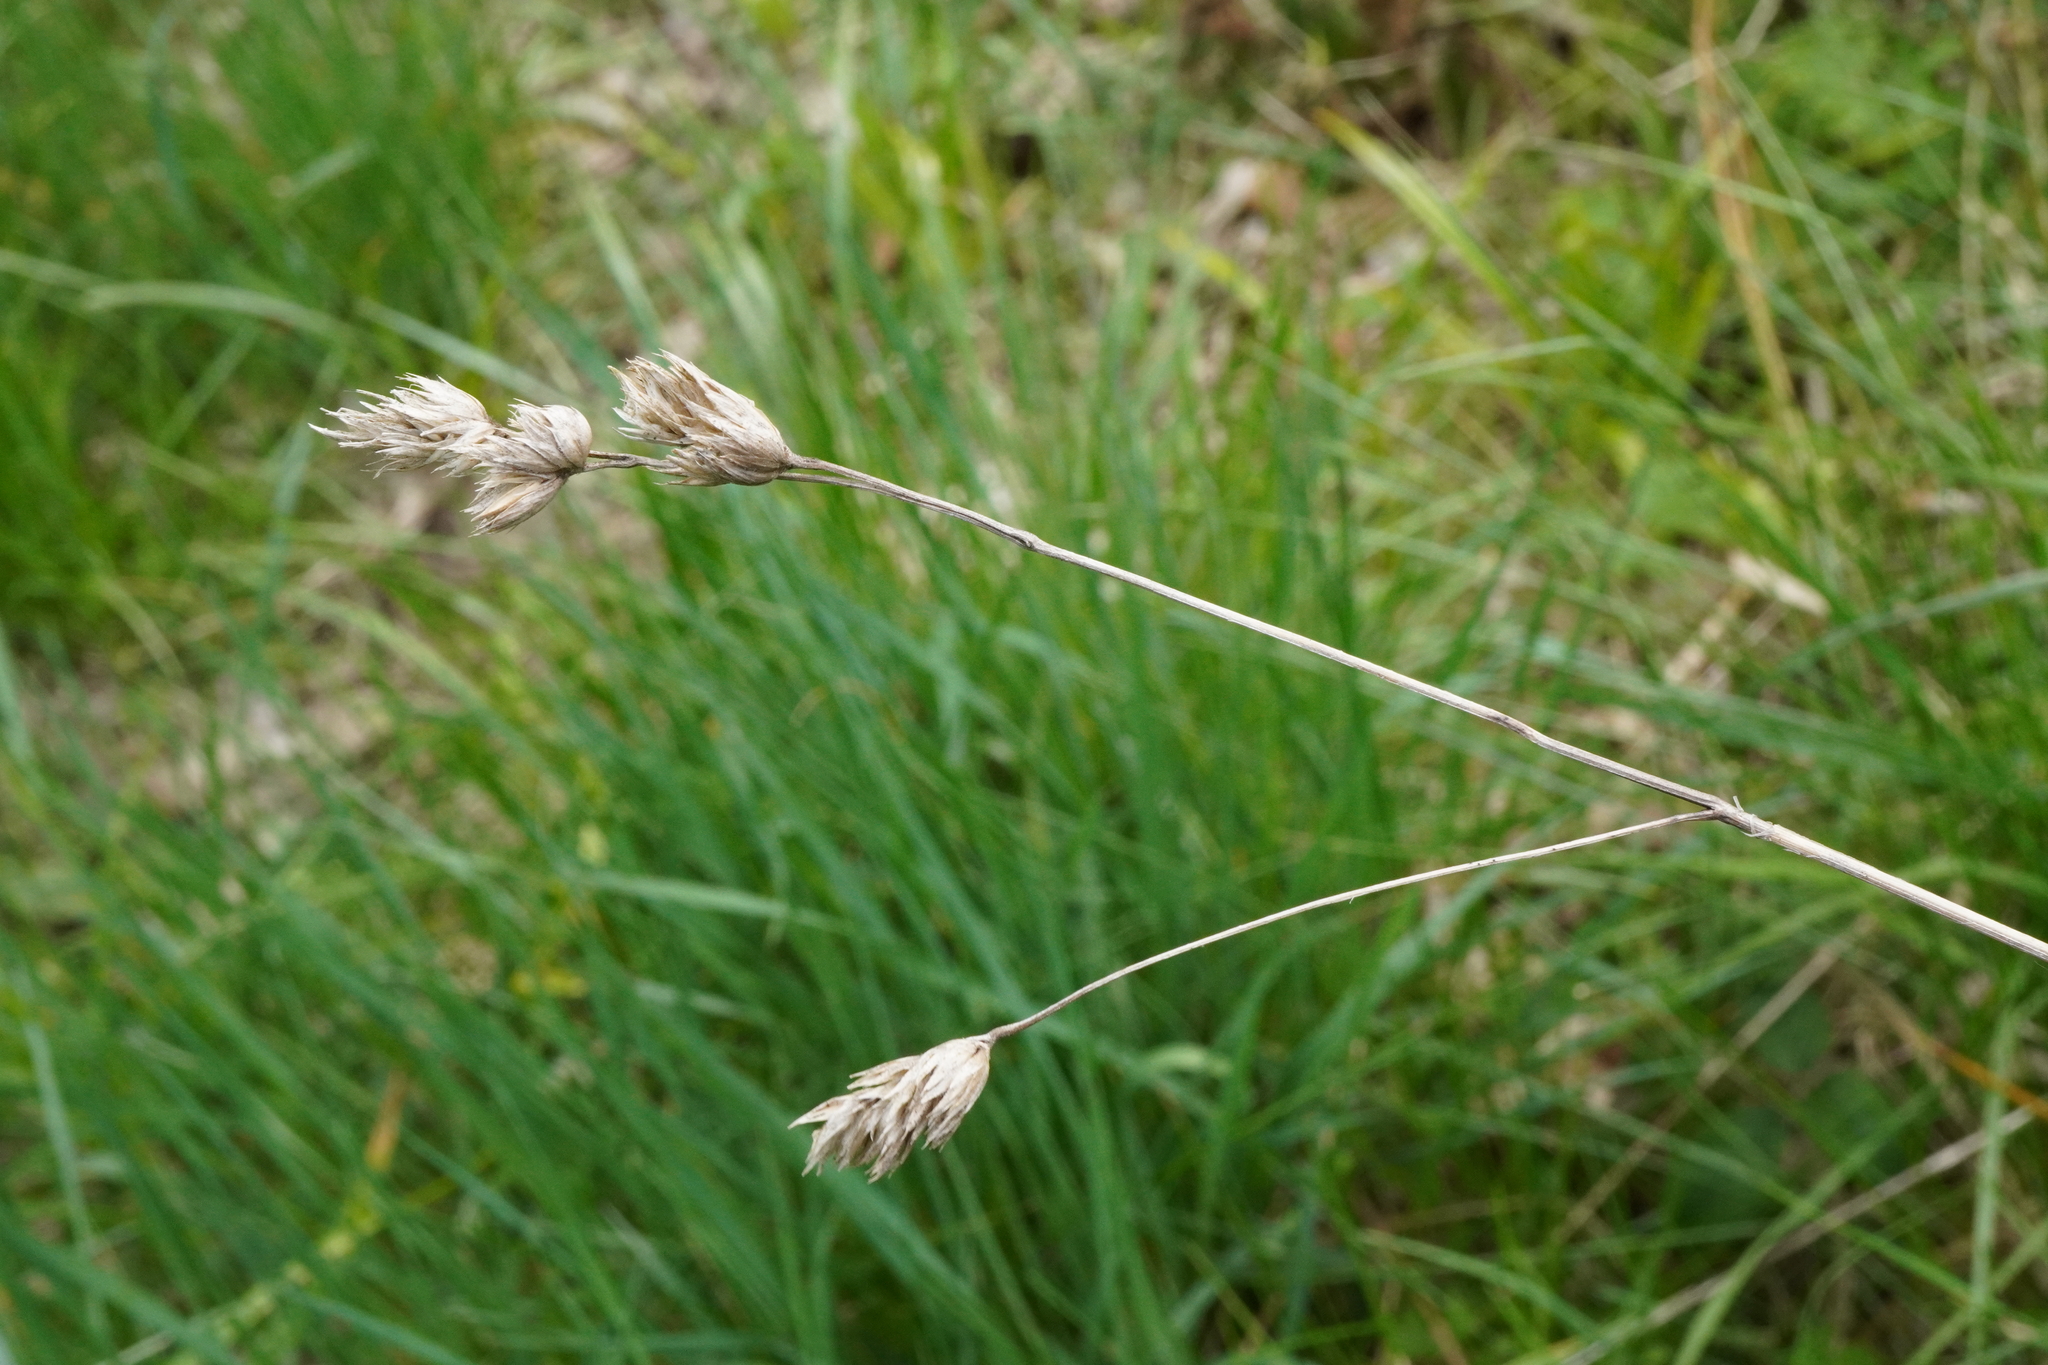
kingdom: Plantae
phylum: Tracheophyta
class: Liliopsida
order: Poales
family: Poaceae
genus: Dactylis
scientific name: Dactylis glomerata
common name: Orchardgrass
